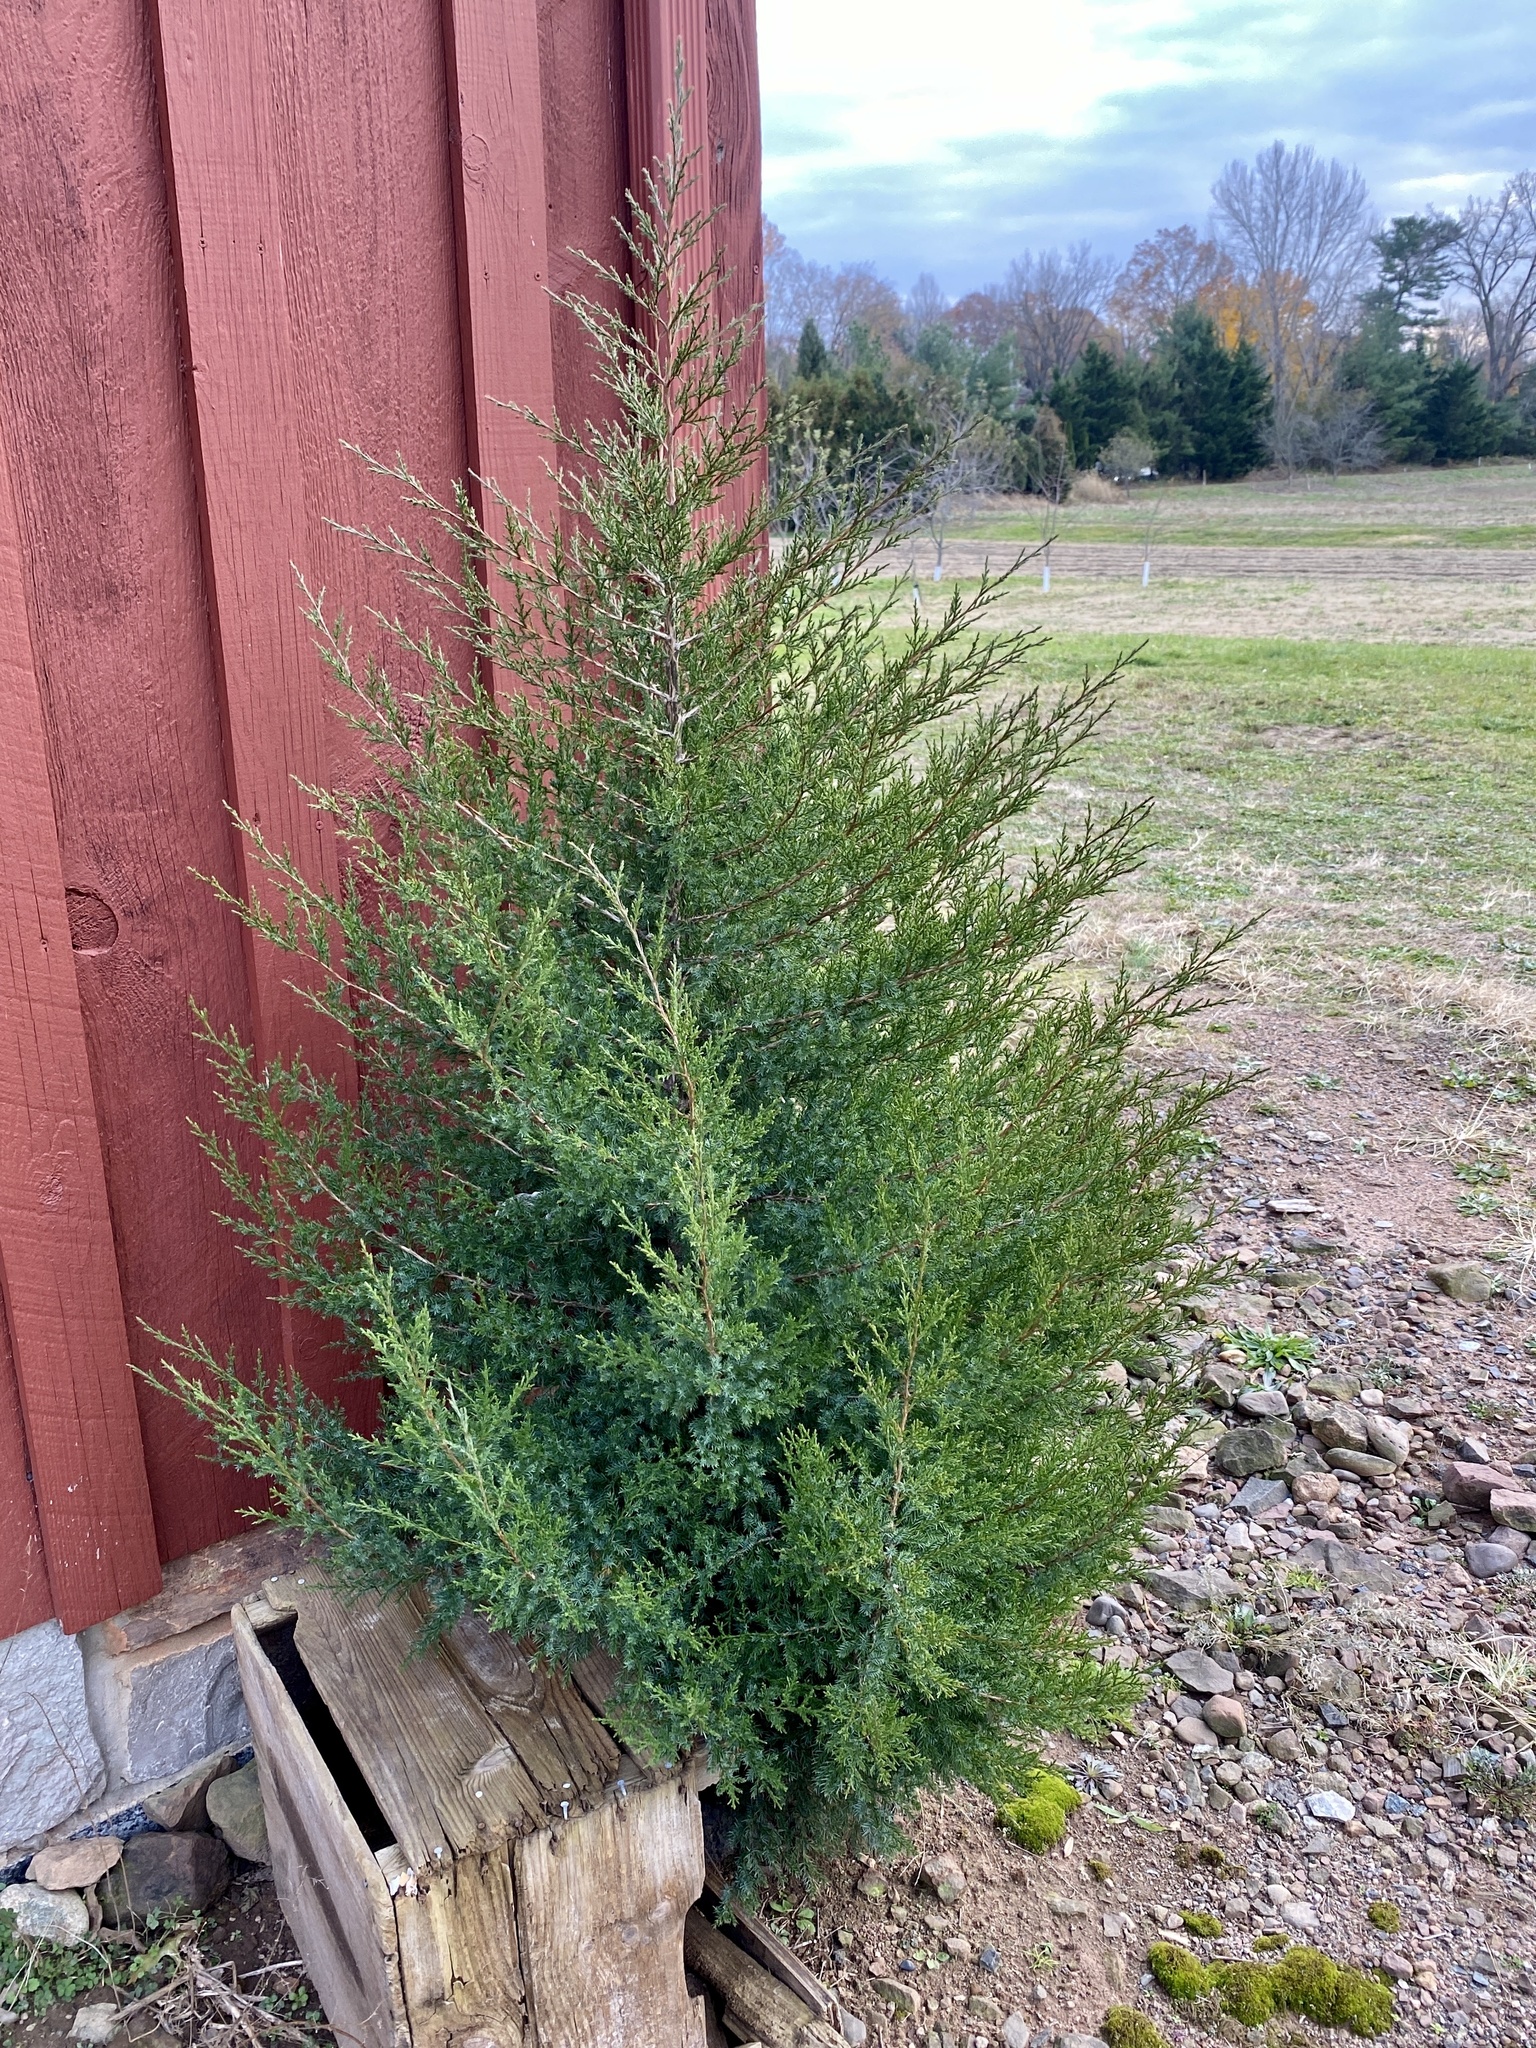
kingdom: Plantae
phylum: Tracheophyta
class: Pinopsida
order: Pinales
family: Cupressaceae
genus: Juniperus
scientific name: Juniperus virginiana
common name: Red juniper
